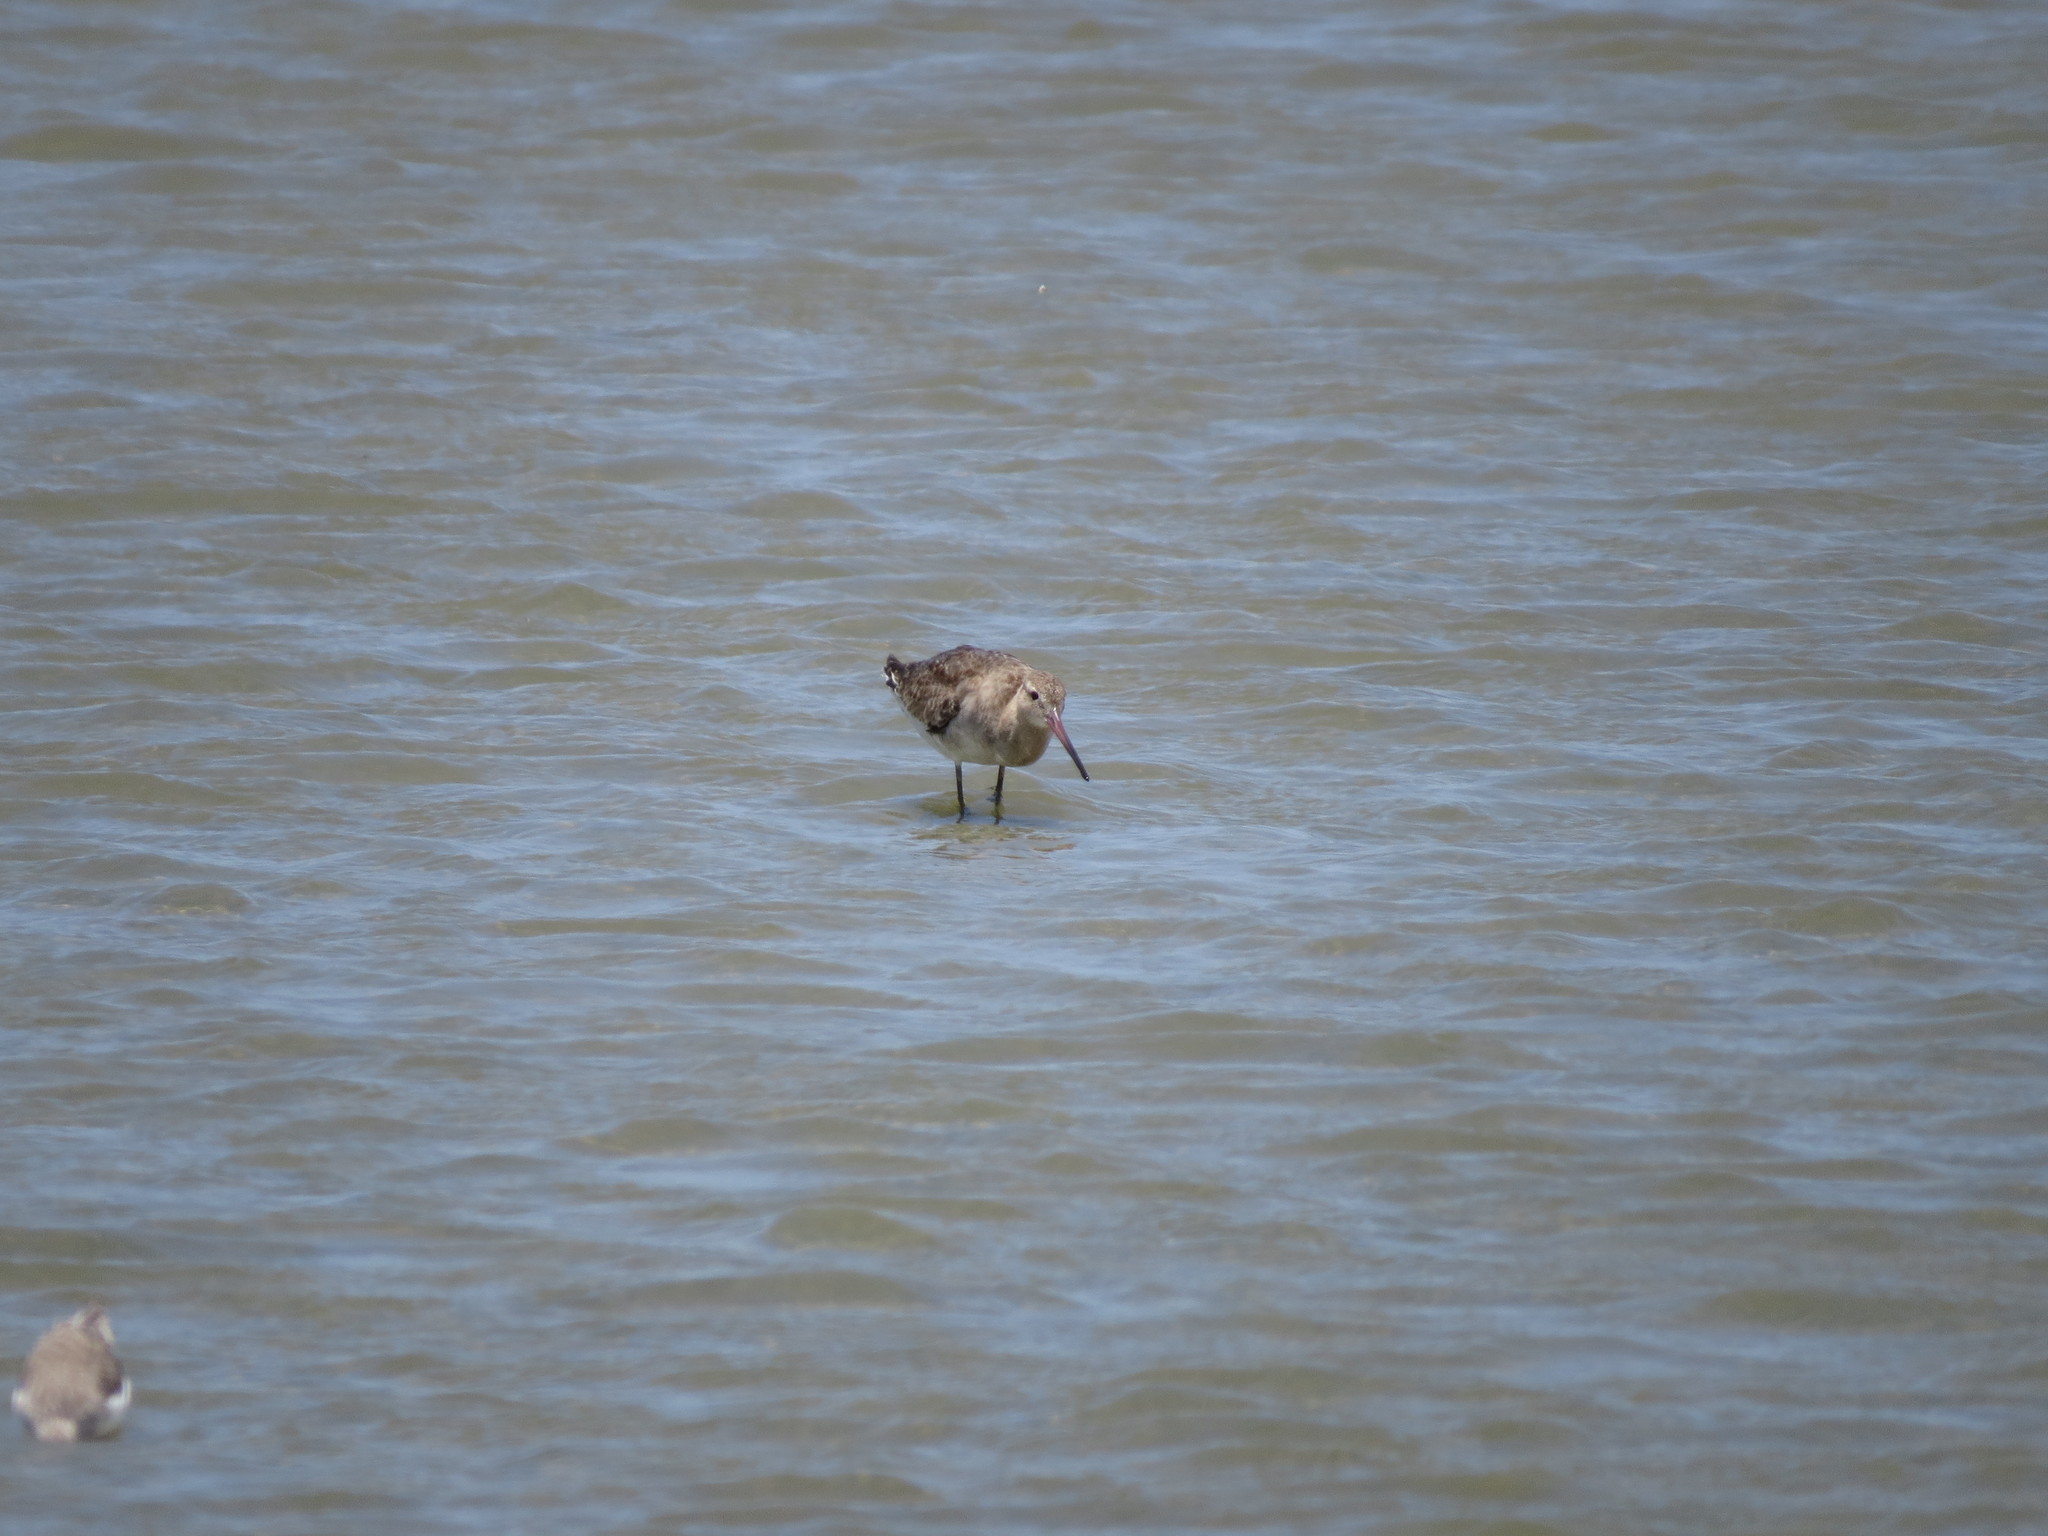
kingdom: Animalia
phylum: Chordata
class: Aves
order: Charadriiformes
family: Scolopacidae
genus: Limosa
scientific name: Limosa limosa
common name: Black-tailed godwit
